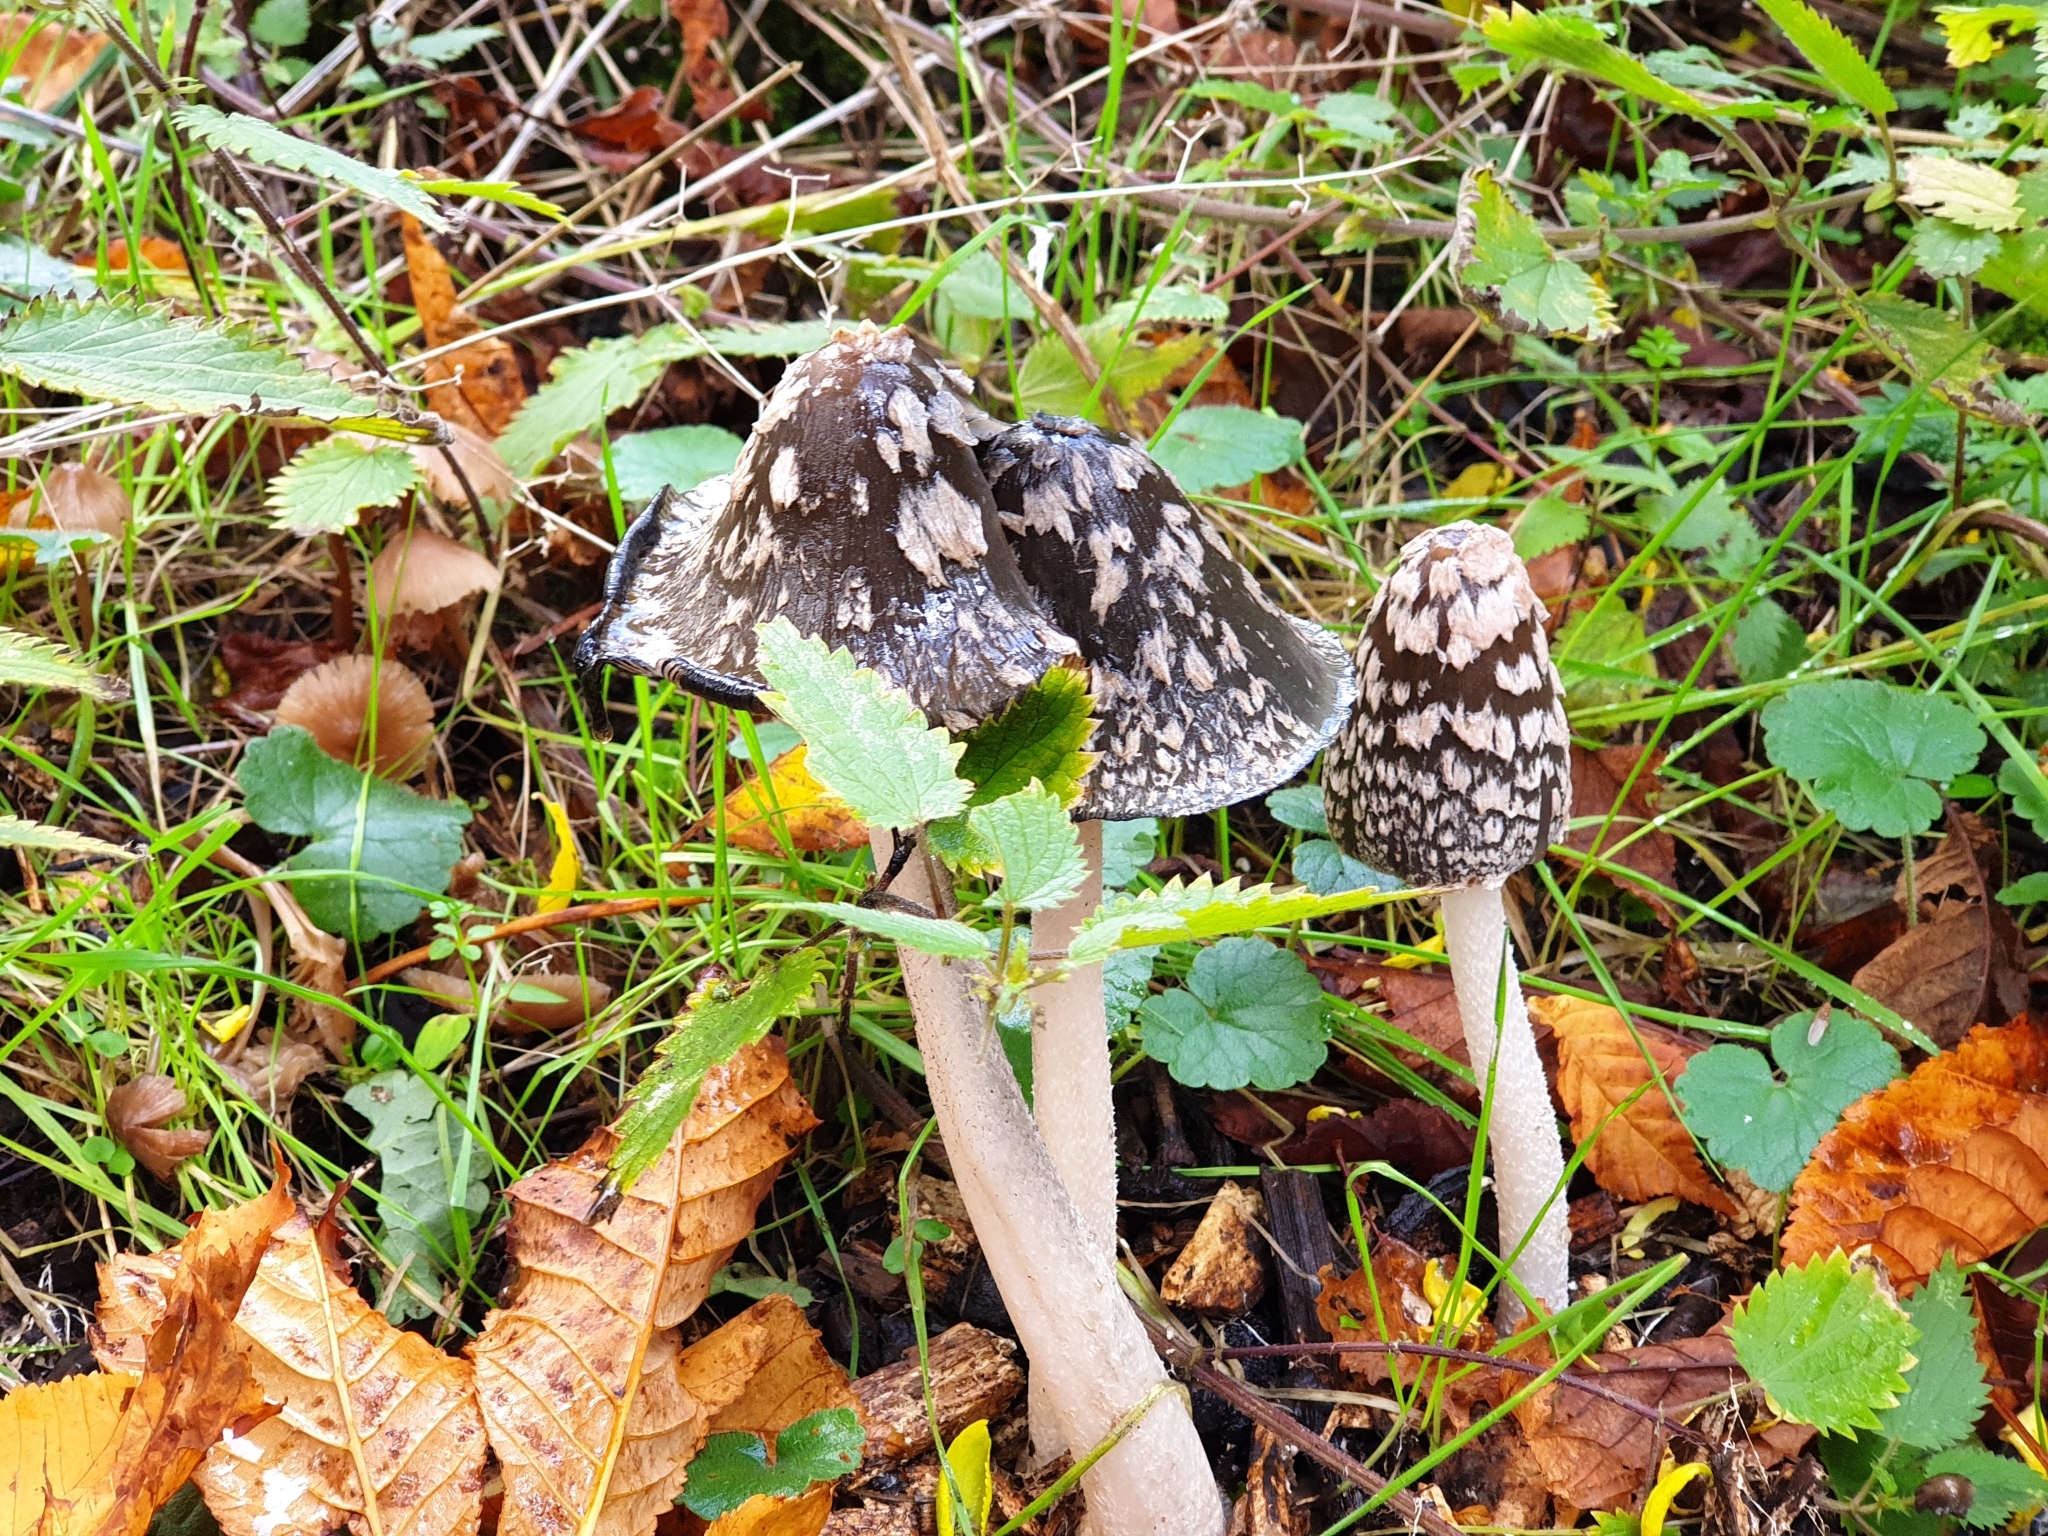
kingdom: Fungi
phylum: Basidiomycota
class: Agaricomycetes
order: Agaricales
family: Psathyrellaceae
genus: Coprinopsis
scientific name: Coprinopsis picacea
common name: Magpie inkcap
